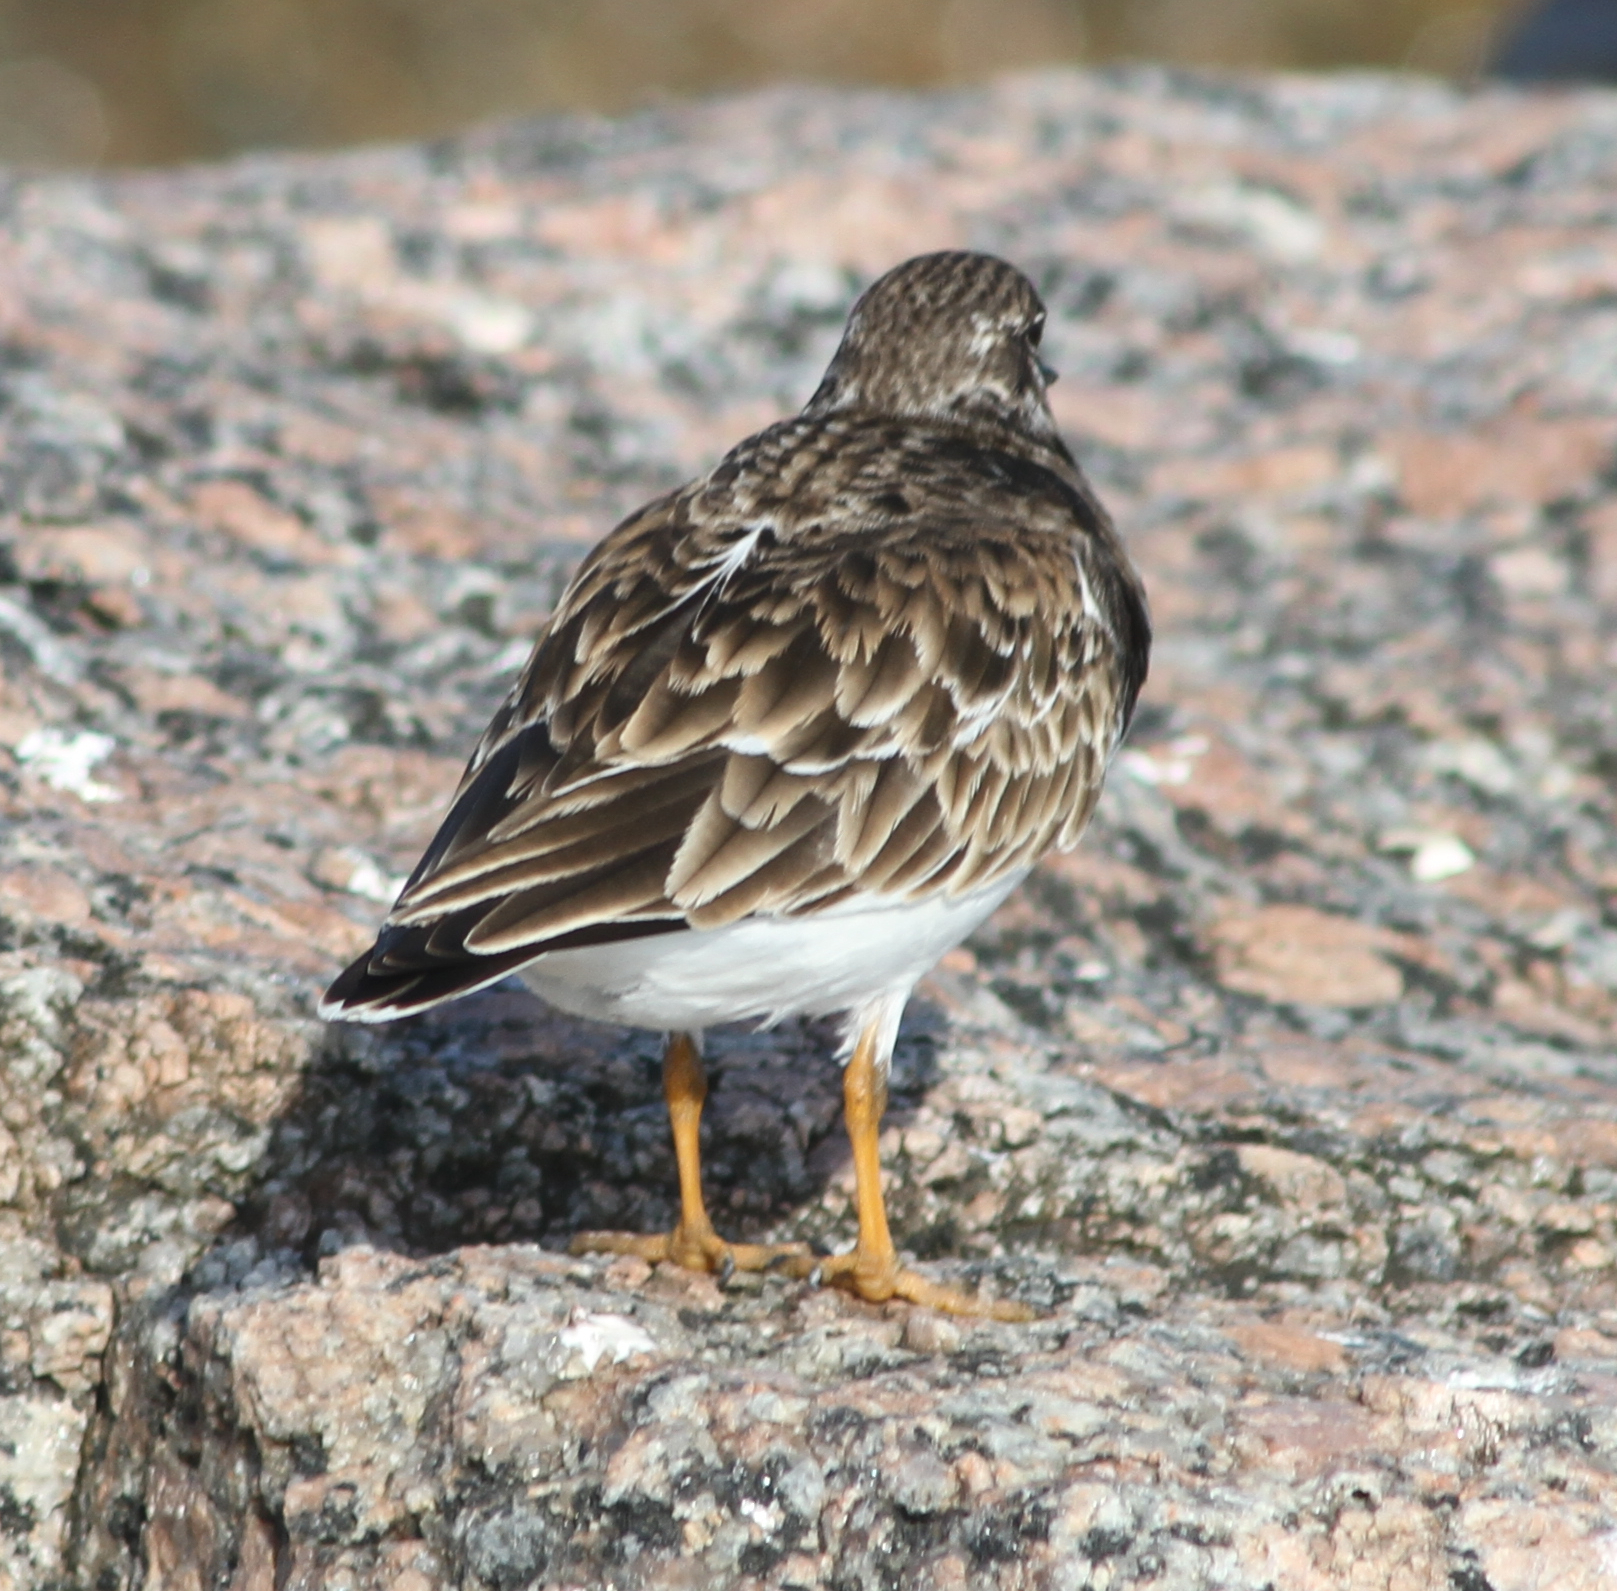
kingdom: Animalia
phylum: Chordata
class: Aves
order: Charadriiformes
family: Scolopacidae
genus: Arenaria
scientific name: Arenaria interpres
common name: Ruddy turnstone
